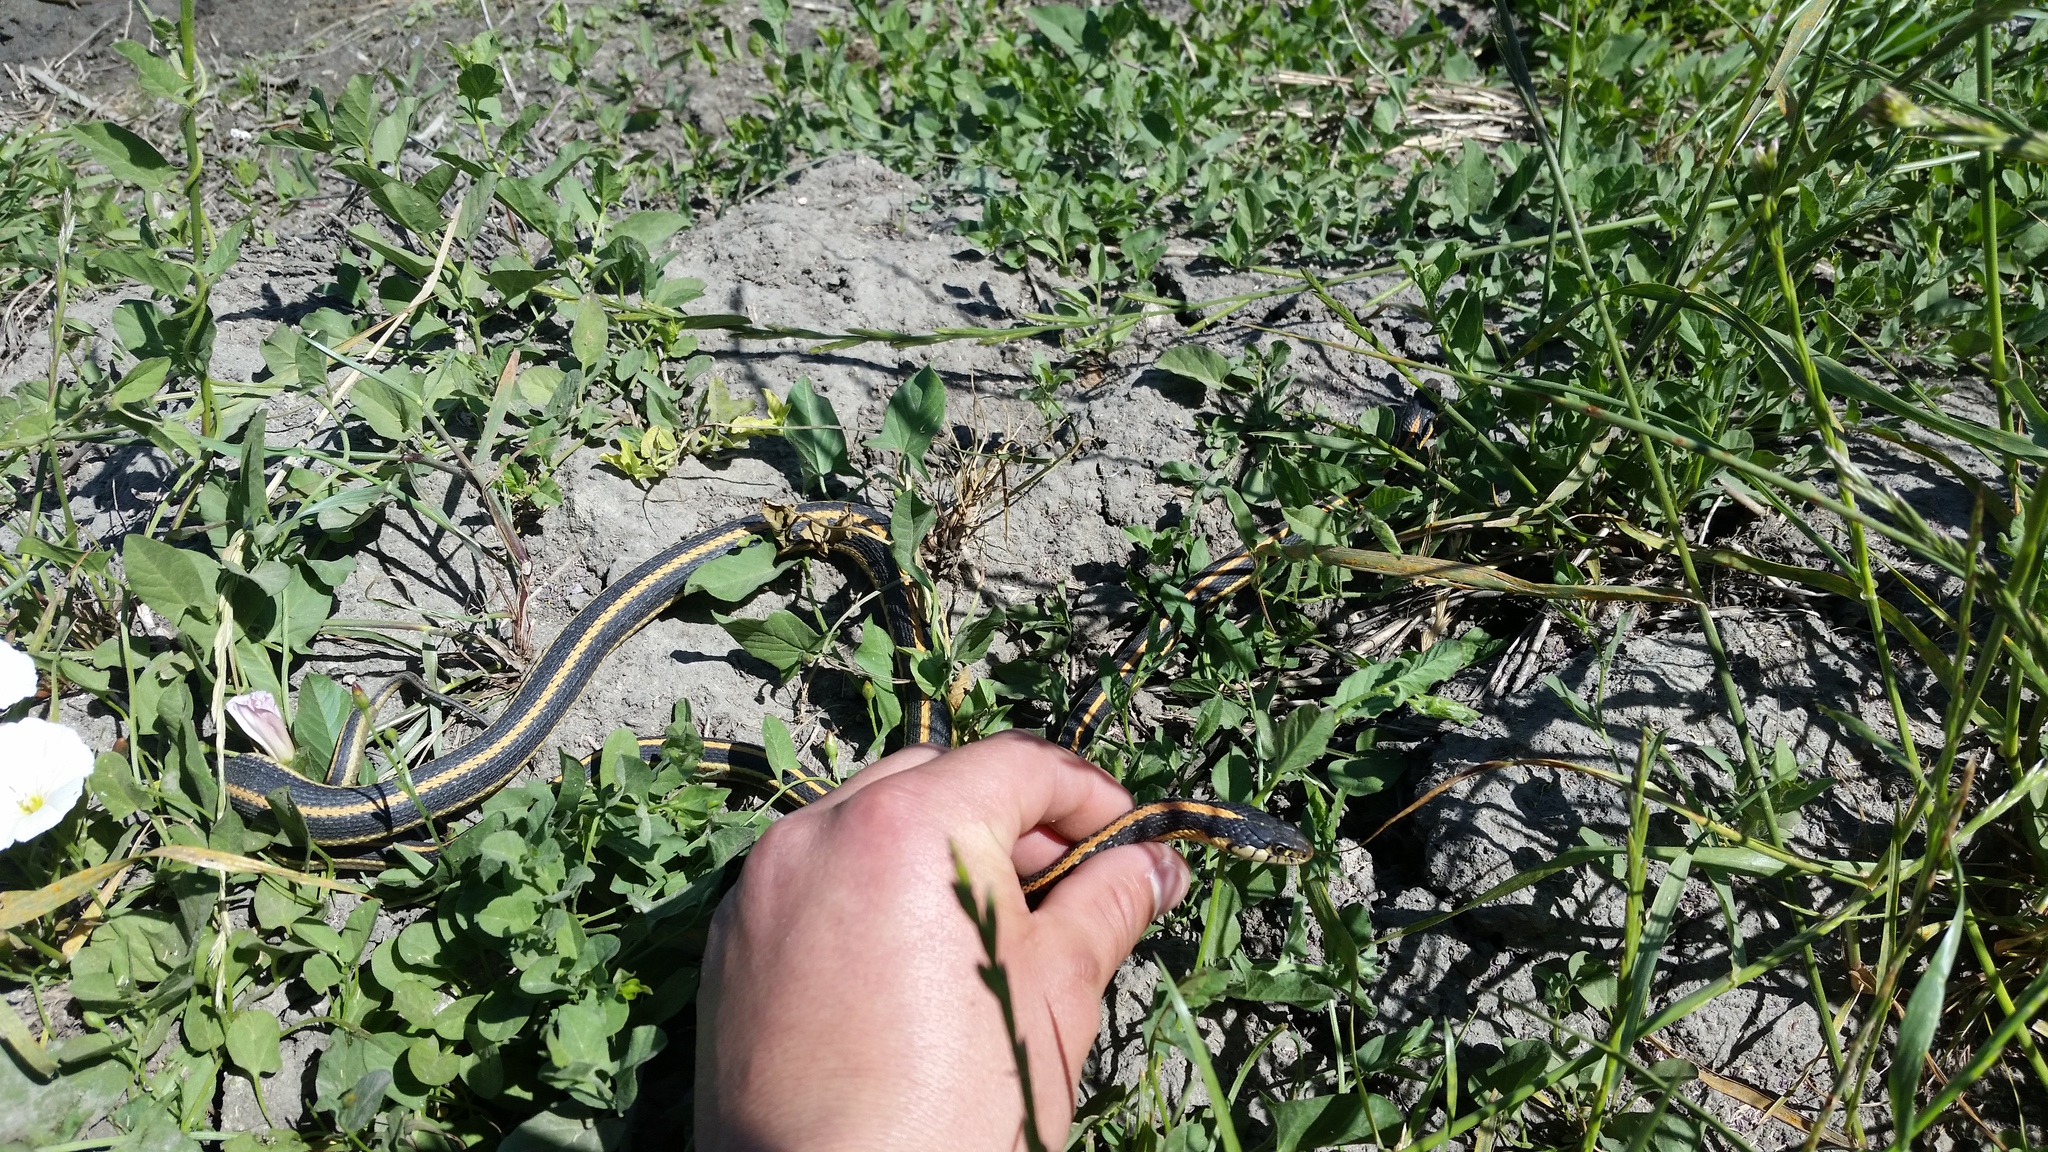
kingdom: Animalia
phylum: Chordata
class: Squamata
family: Colubridae
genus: Thamnophis
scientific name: Thamnophis elegans
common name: Western terrestrial garter snake
